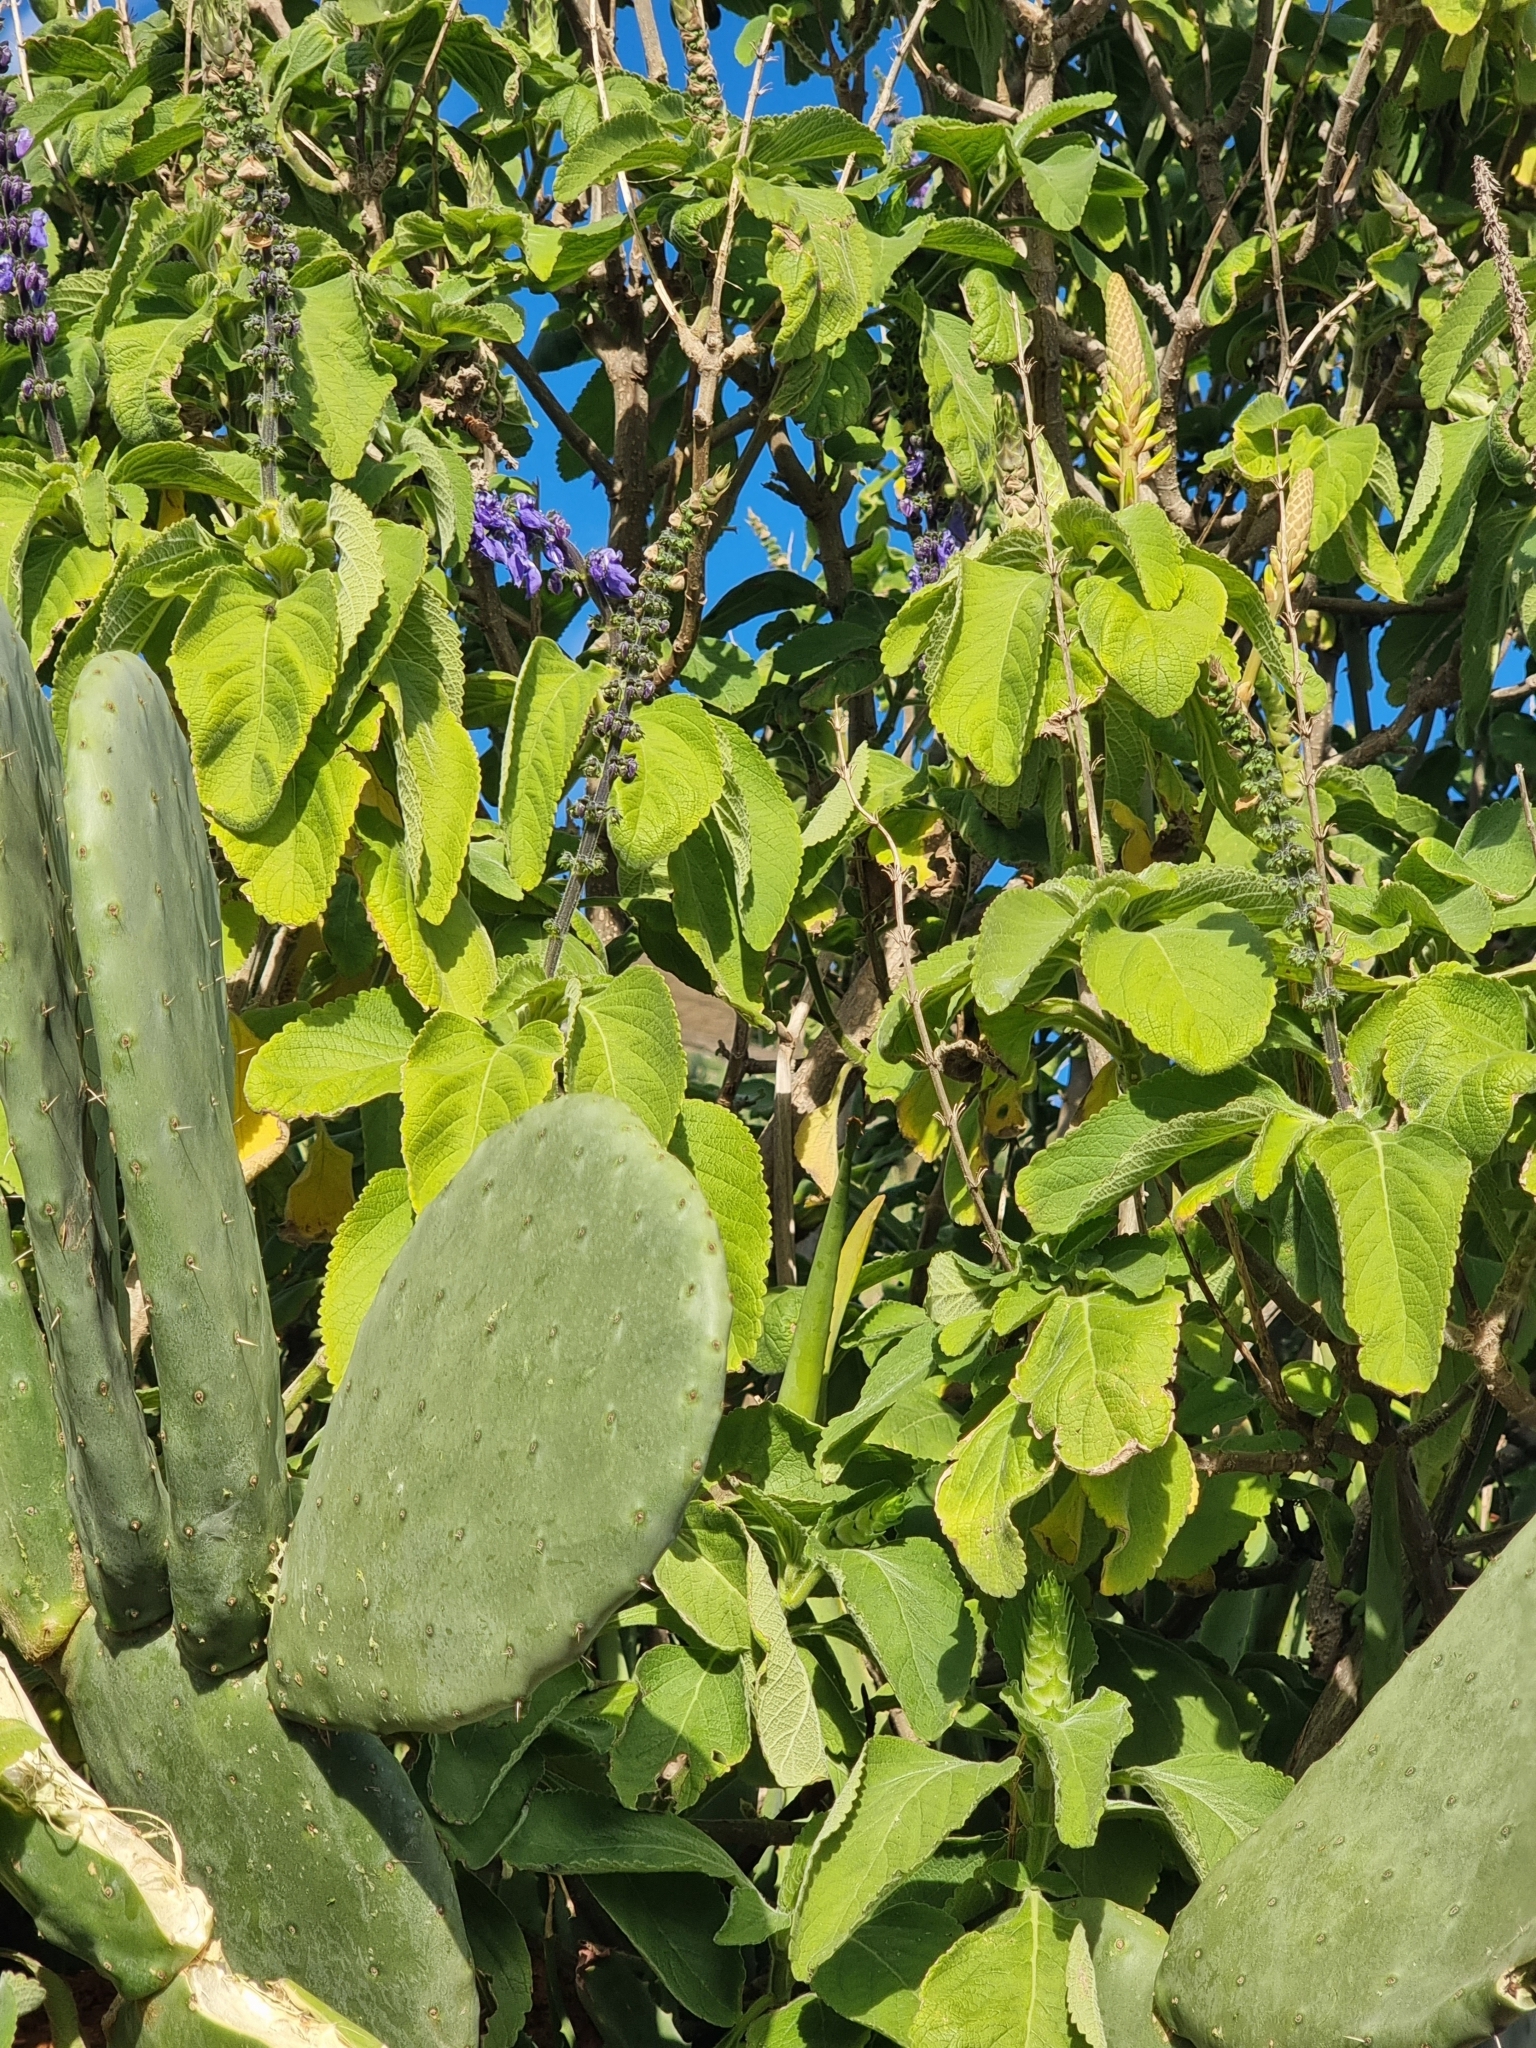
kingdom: Plantae
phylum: Tracheophyta
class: Magnoliopsida
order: Lamiales
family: Lamiaceae
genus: Coleus
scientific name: Coleus barbatus
